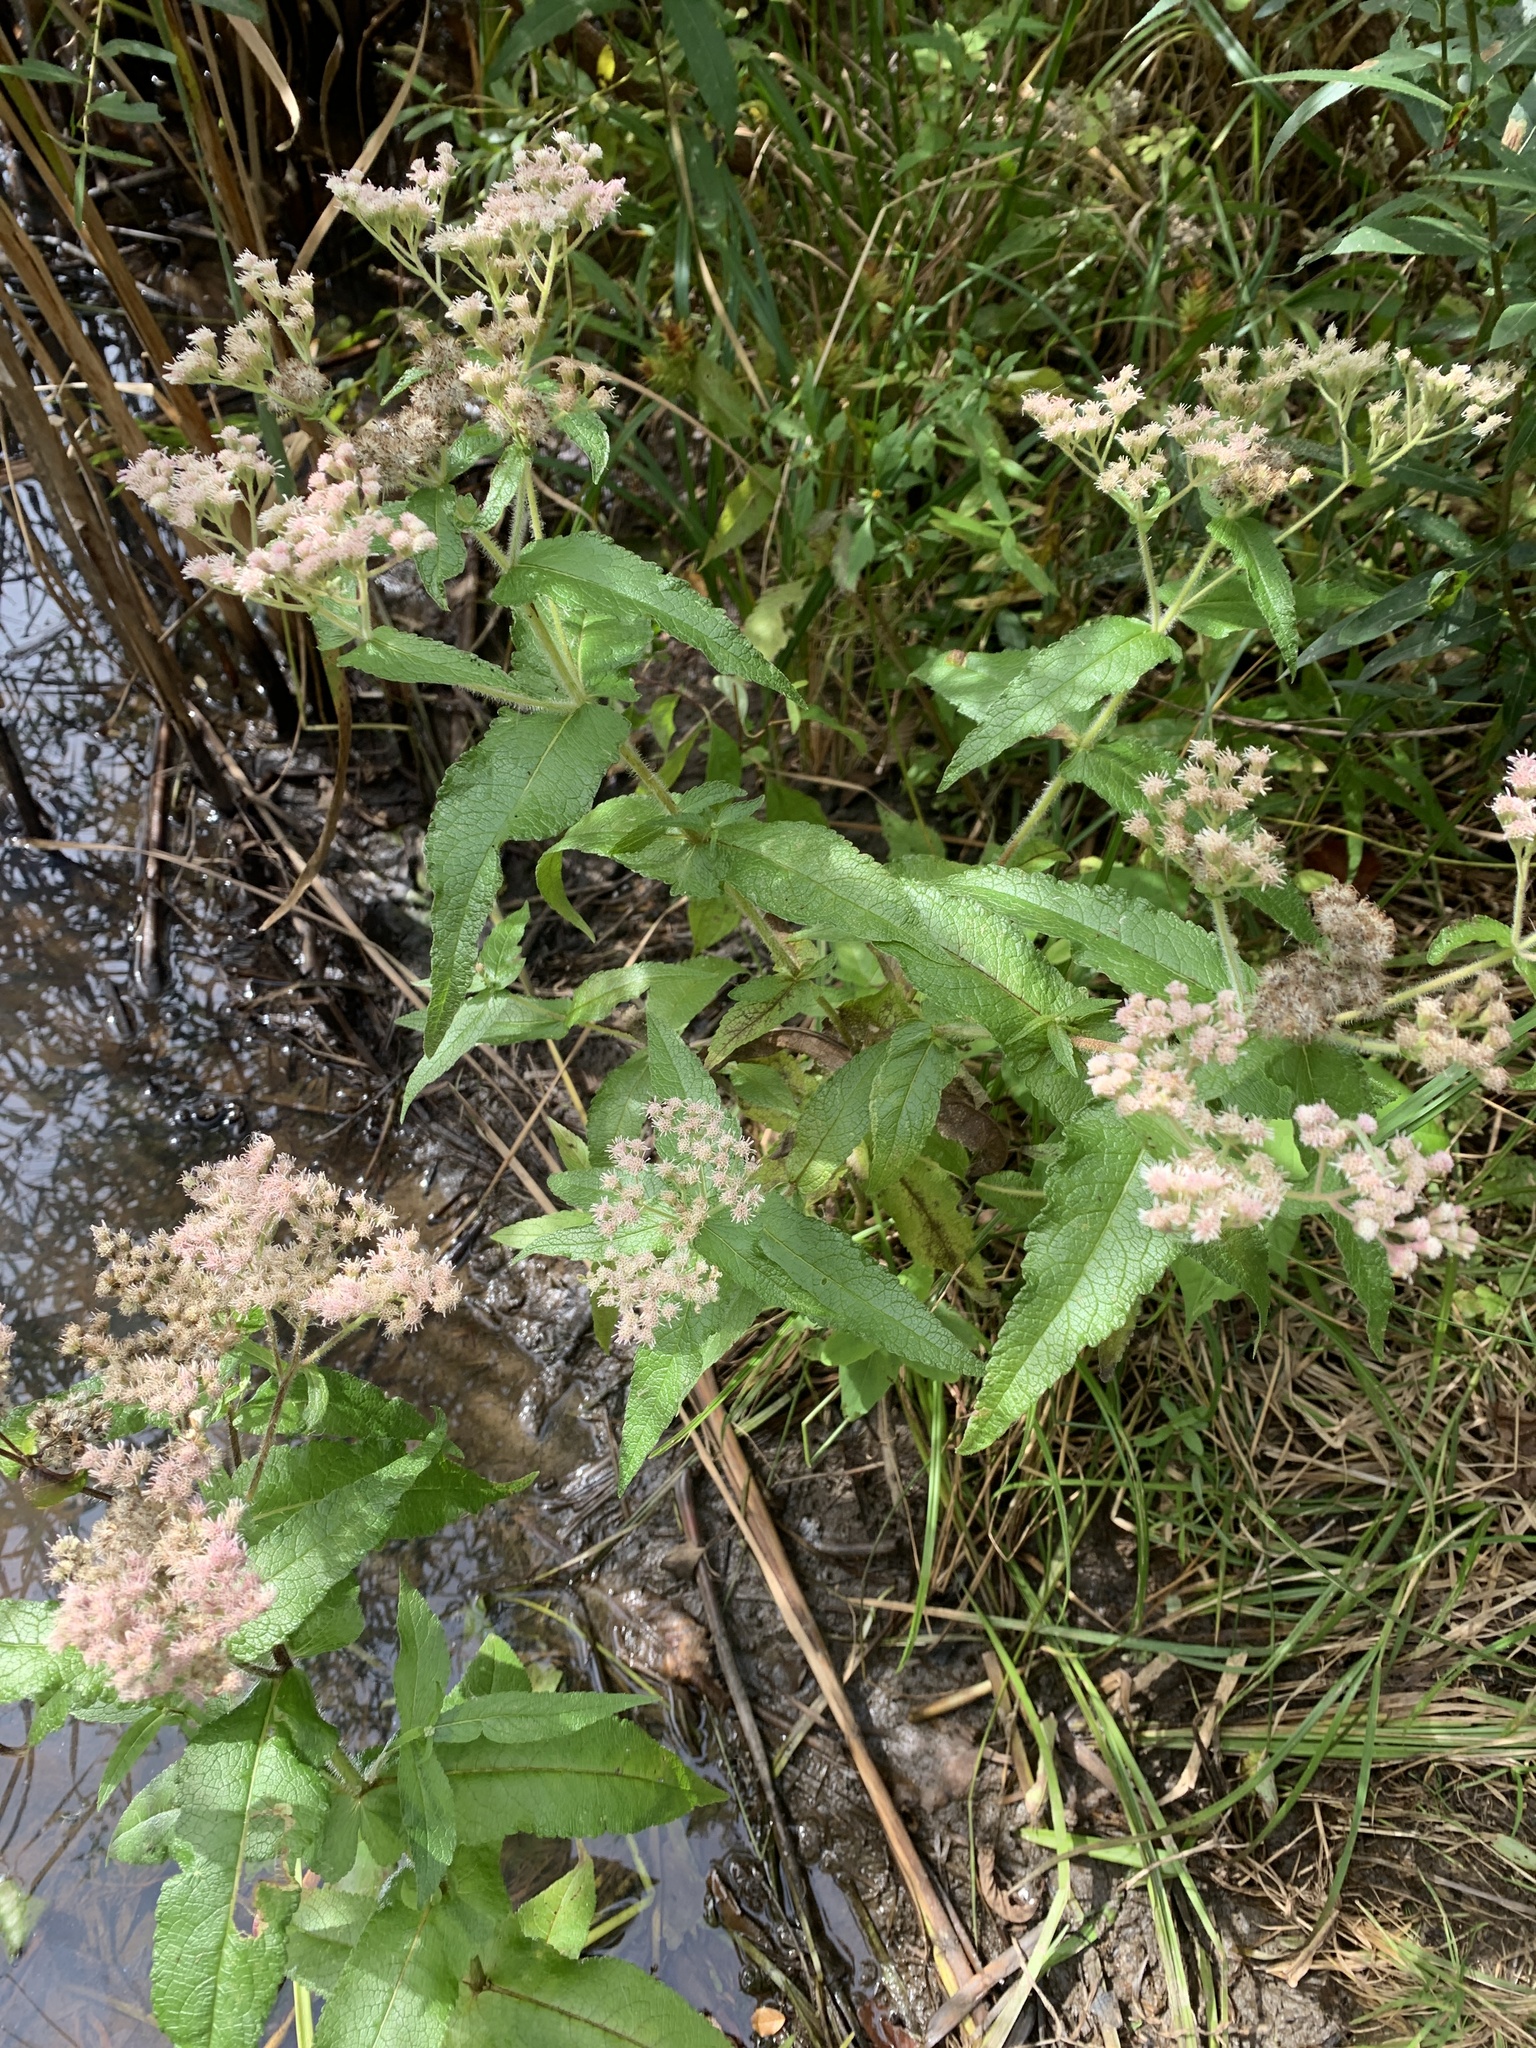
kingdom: Plantae
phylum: Tracheophyta
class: Magnoliopsida
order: Asterales
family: Asteraceae
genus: Eupatorium
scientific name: Eupatorium perfoliatum
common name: Boneset
